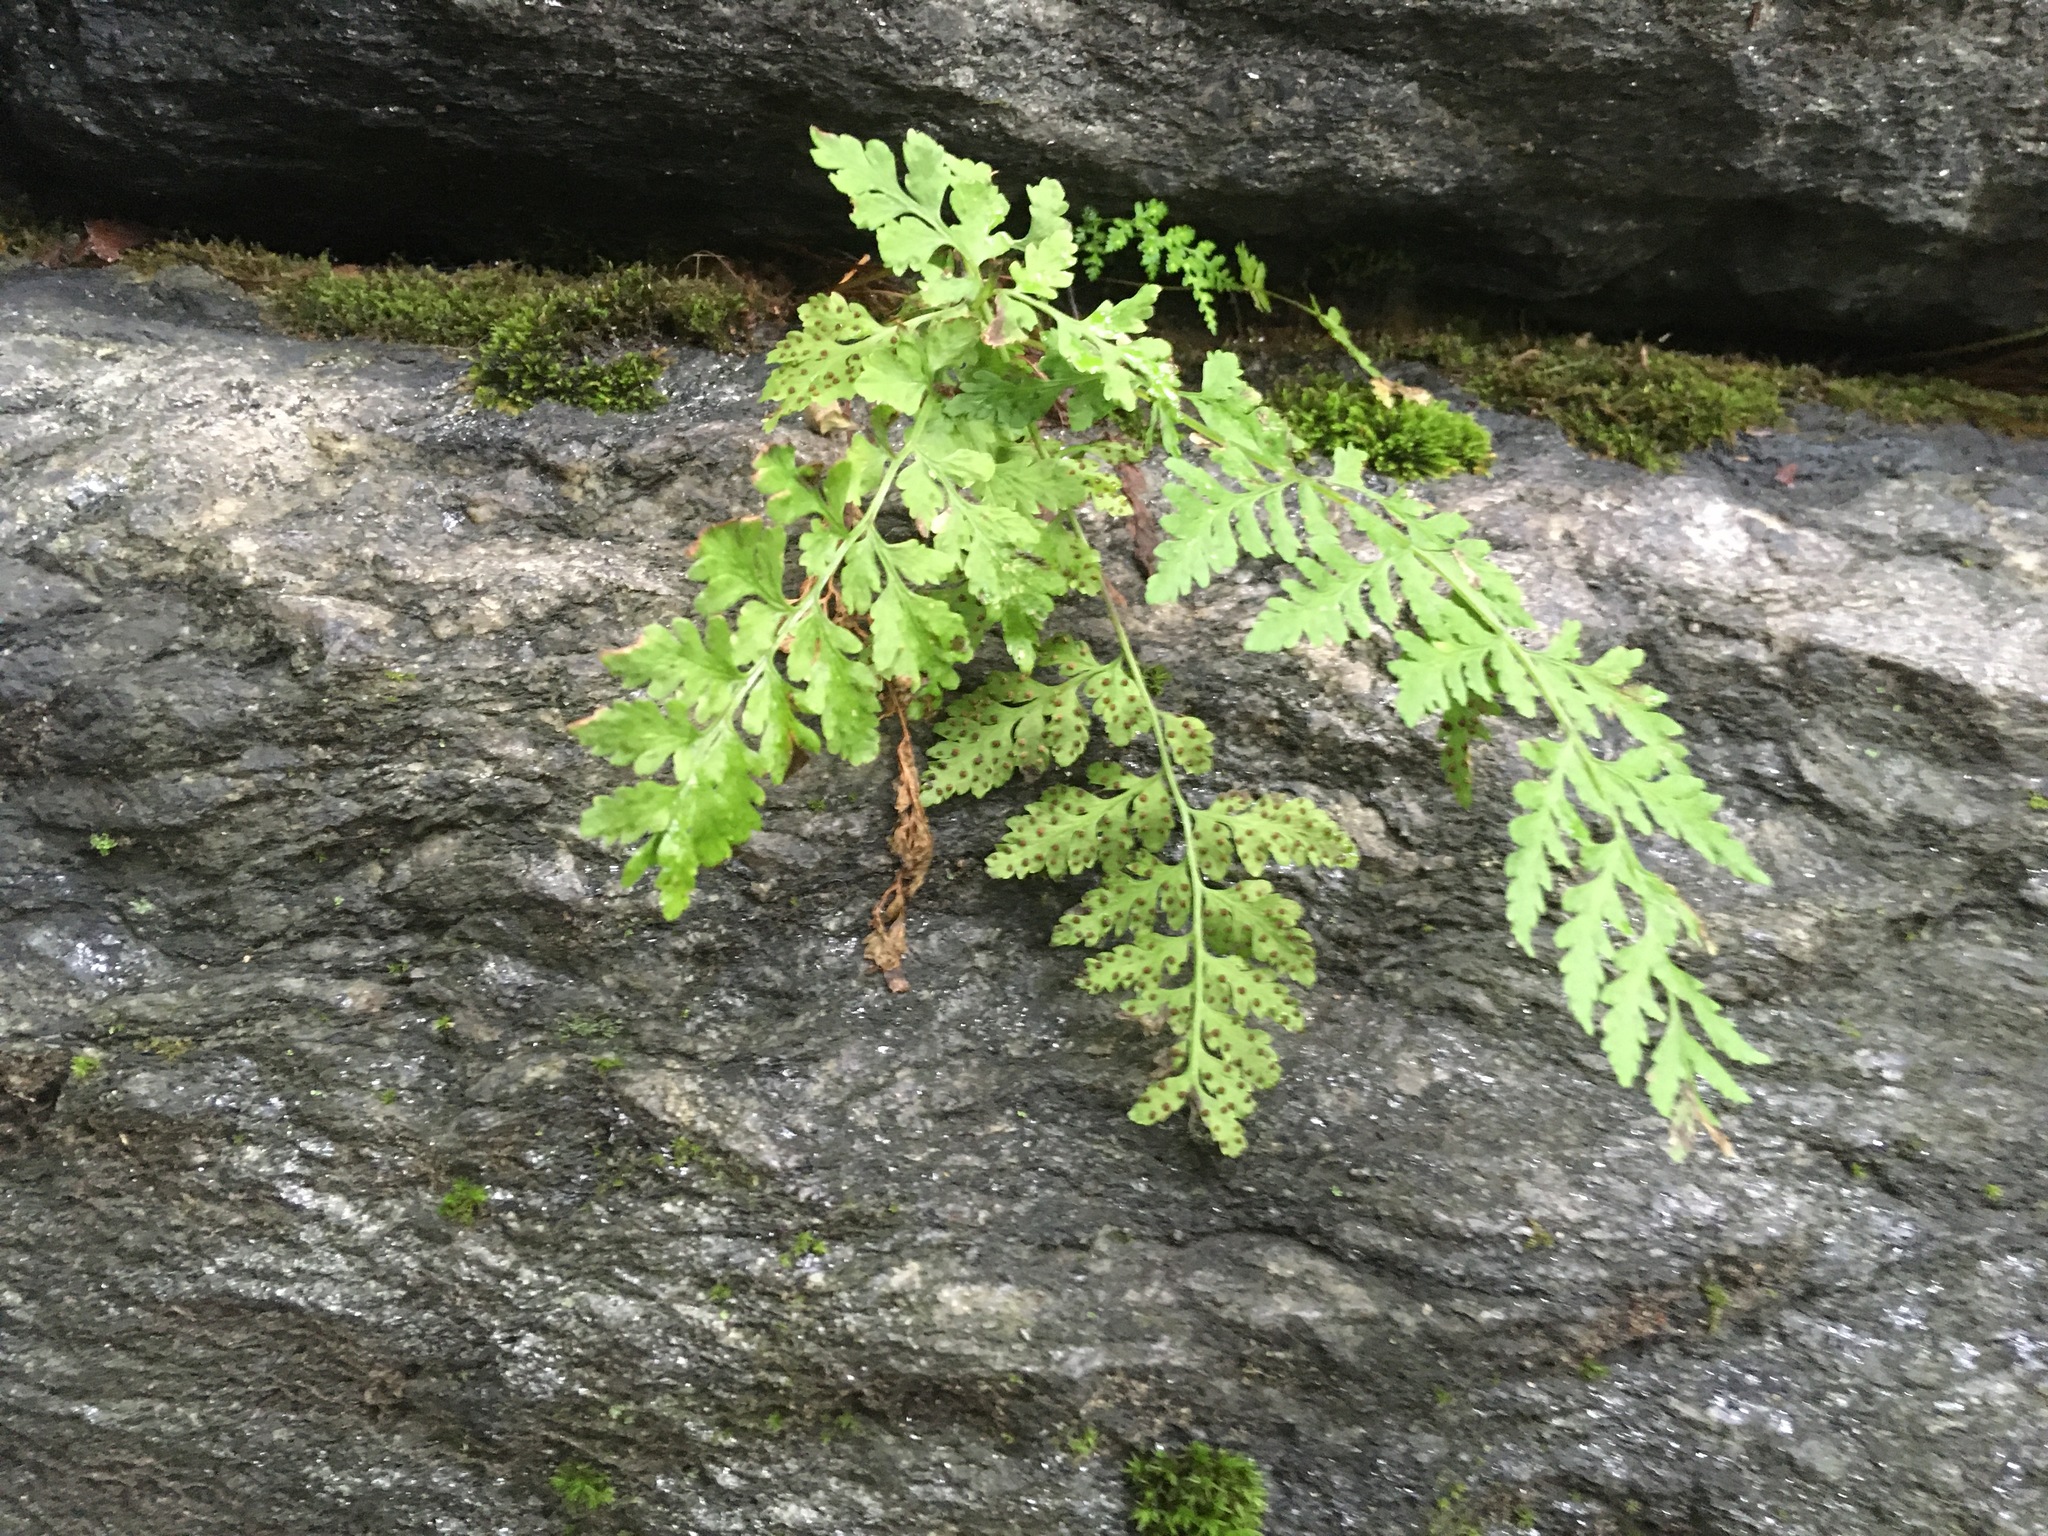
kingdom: Plantae
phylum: Tracheophyta
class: Polypodiopsida
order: Polypodiales
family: Woodsiaceae
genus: Physematium
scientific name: Physematium obtusum
